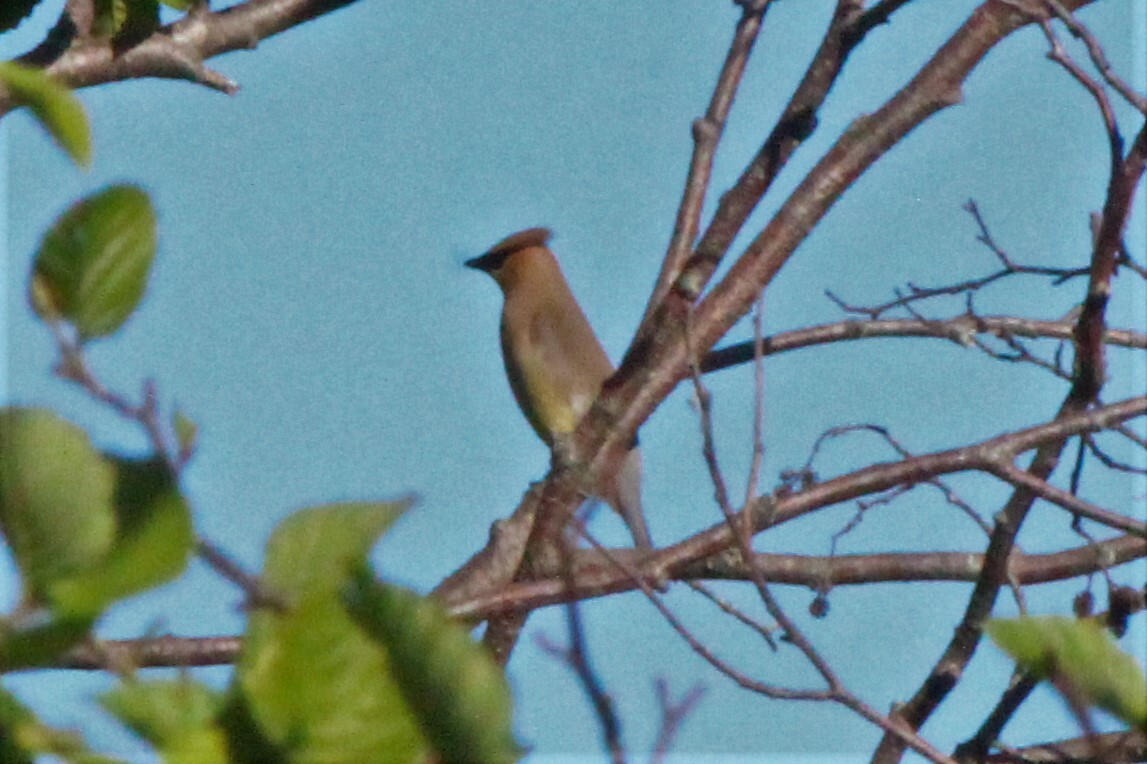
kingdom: Animalia
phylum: Chordata
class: Aves
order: Passeriformes
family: Bombycillidae
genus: Bombycilla
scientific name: Bombycilla cedrorum
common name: Cedar waxwing
